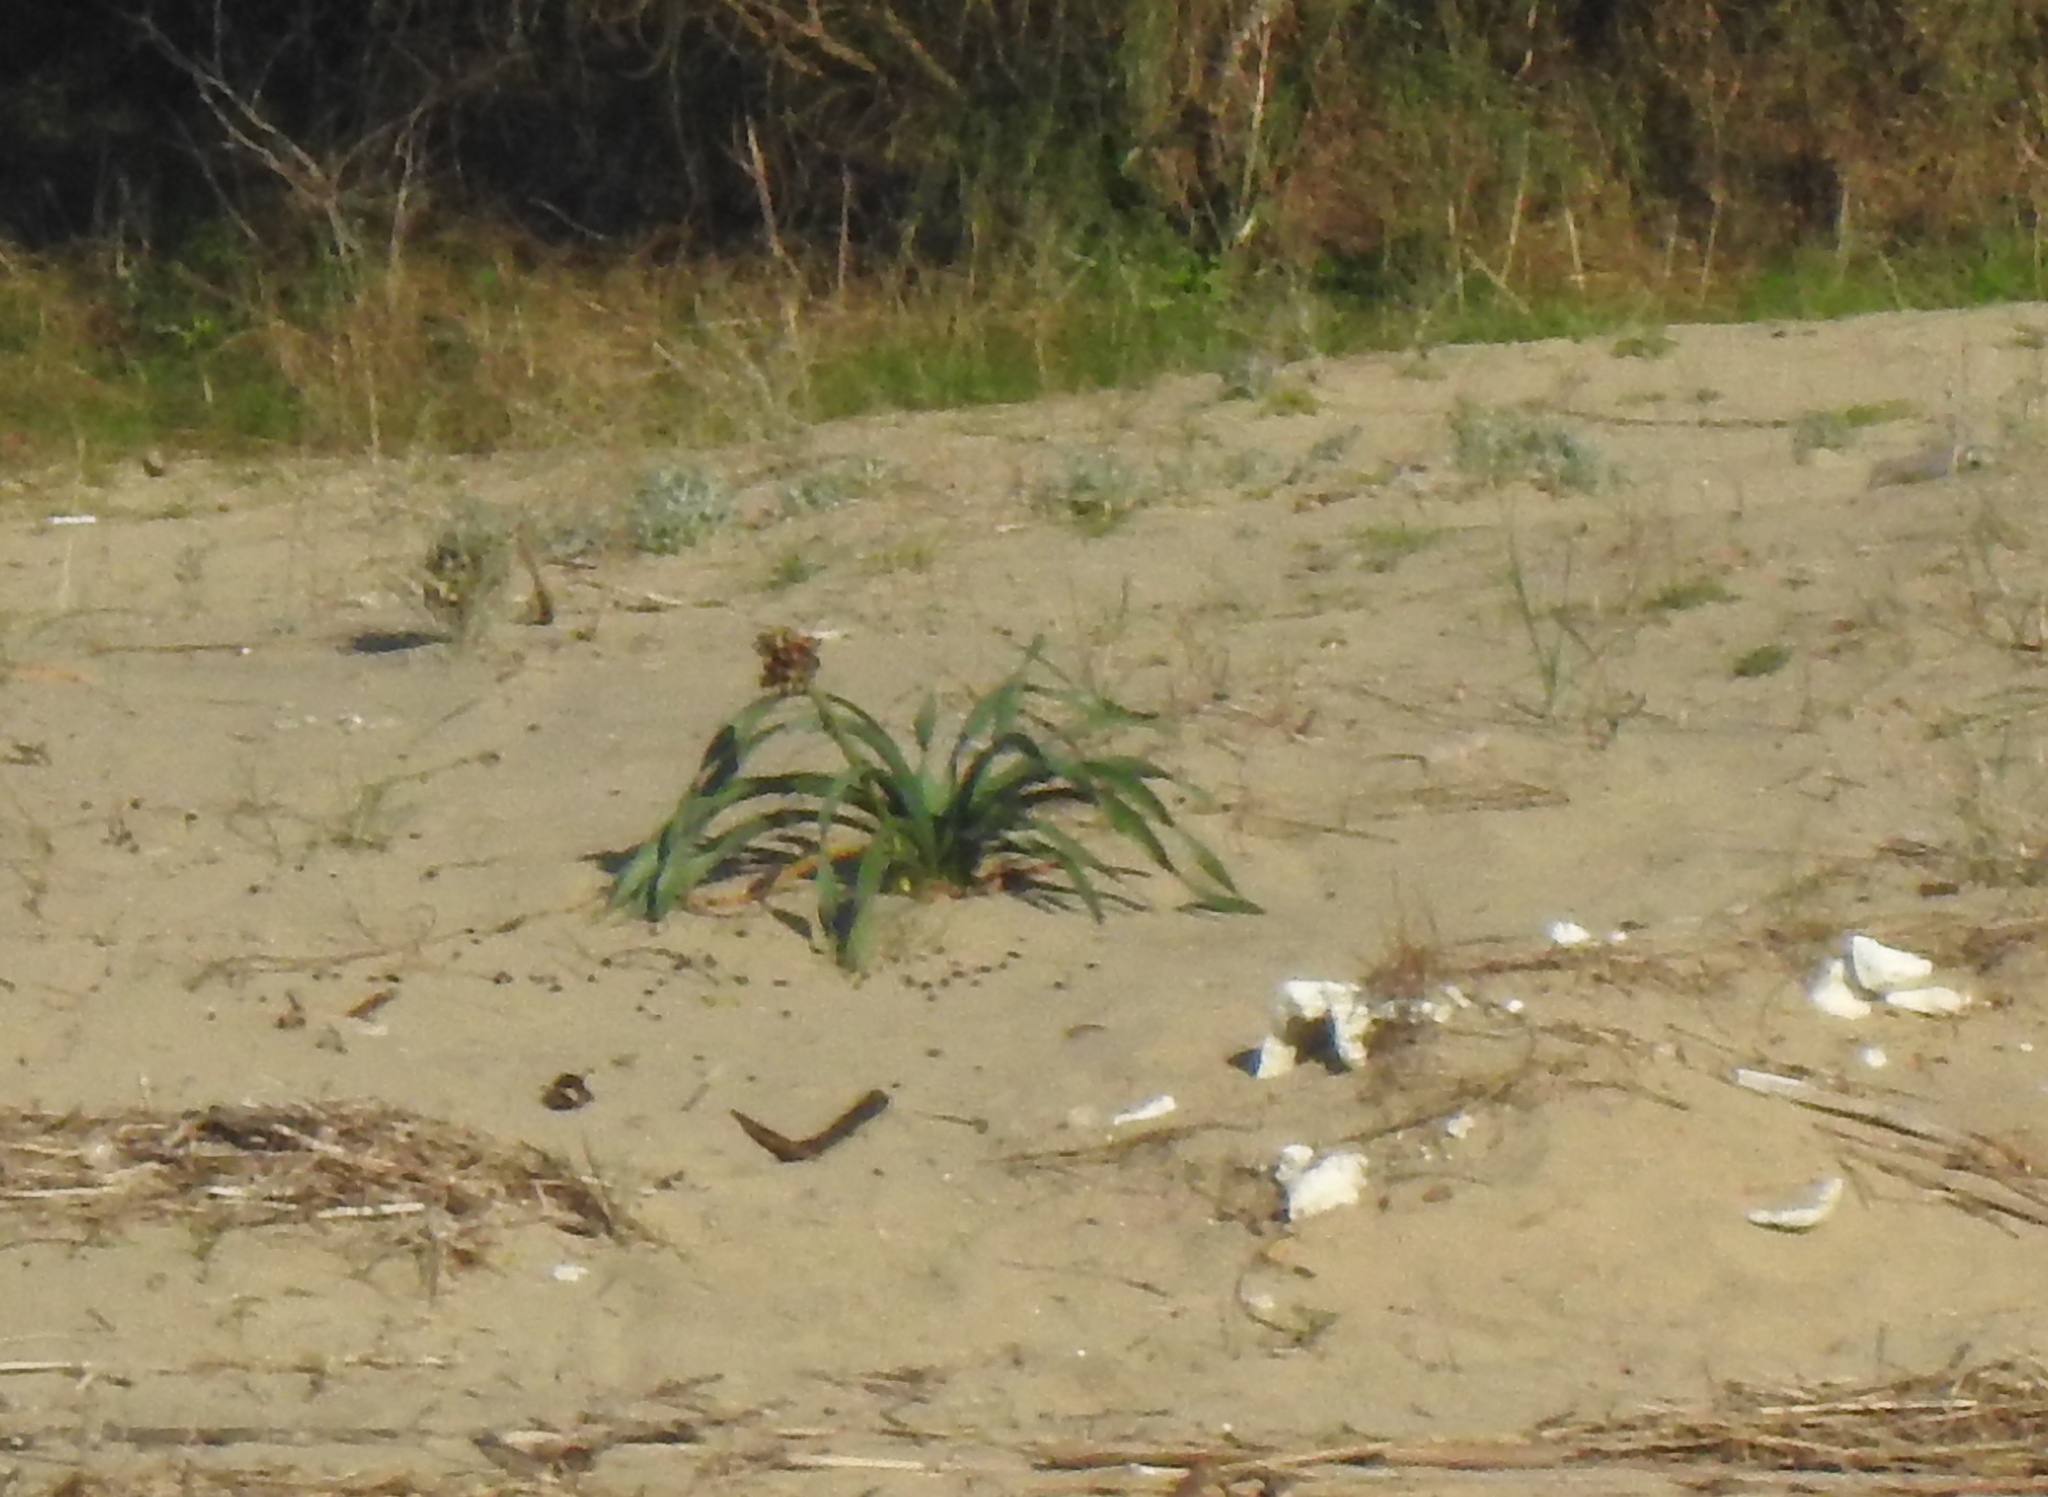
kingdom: Plantae
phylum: Tracheophyta
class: Liliopsida
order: Asparagales
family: Amaryllidaceae
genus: Pancratium
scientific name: Pancratium maritimum
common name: Sea-daffodil
